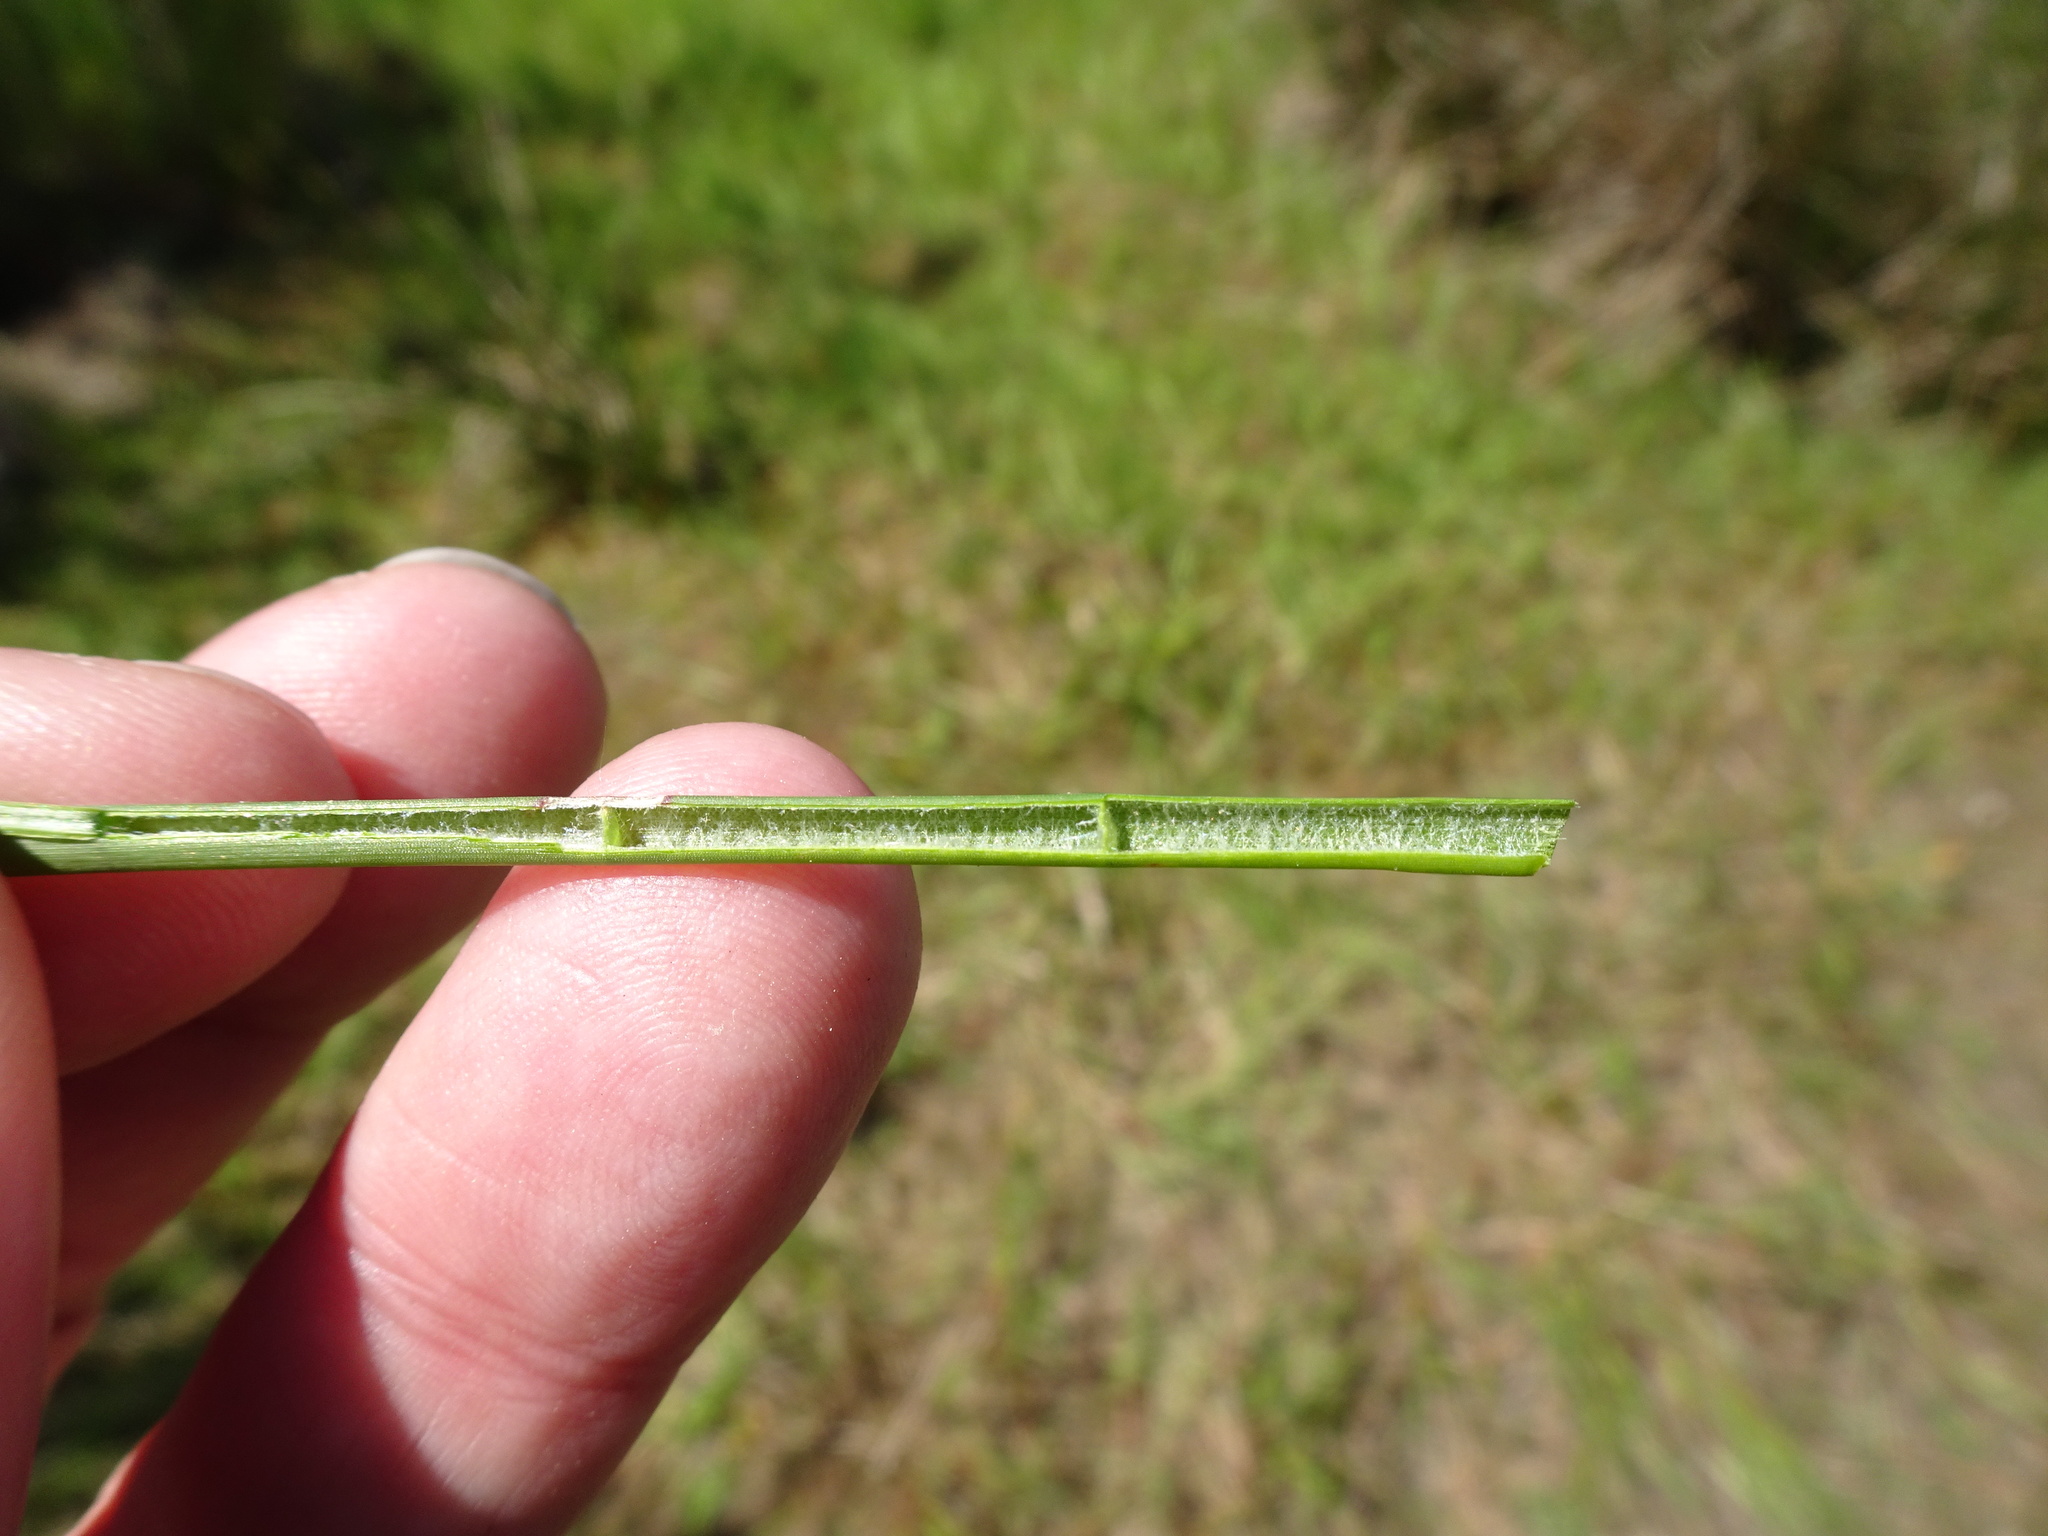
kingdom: Plantae
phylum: Tracheophyta
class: Liliopsida
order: Poales
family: Juncaceae
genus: Juncus
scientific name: Juncus articulatus
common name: Jointed rush
